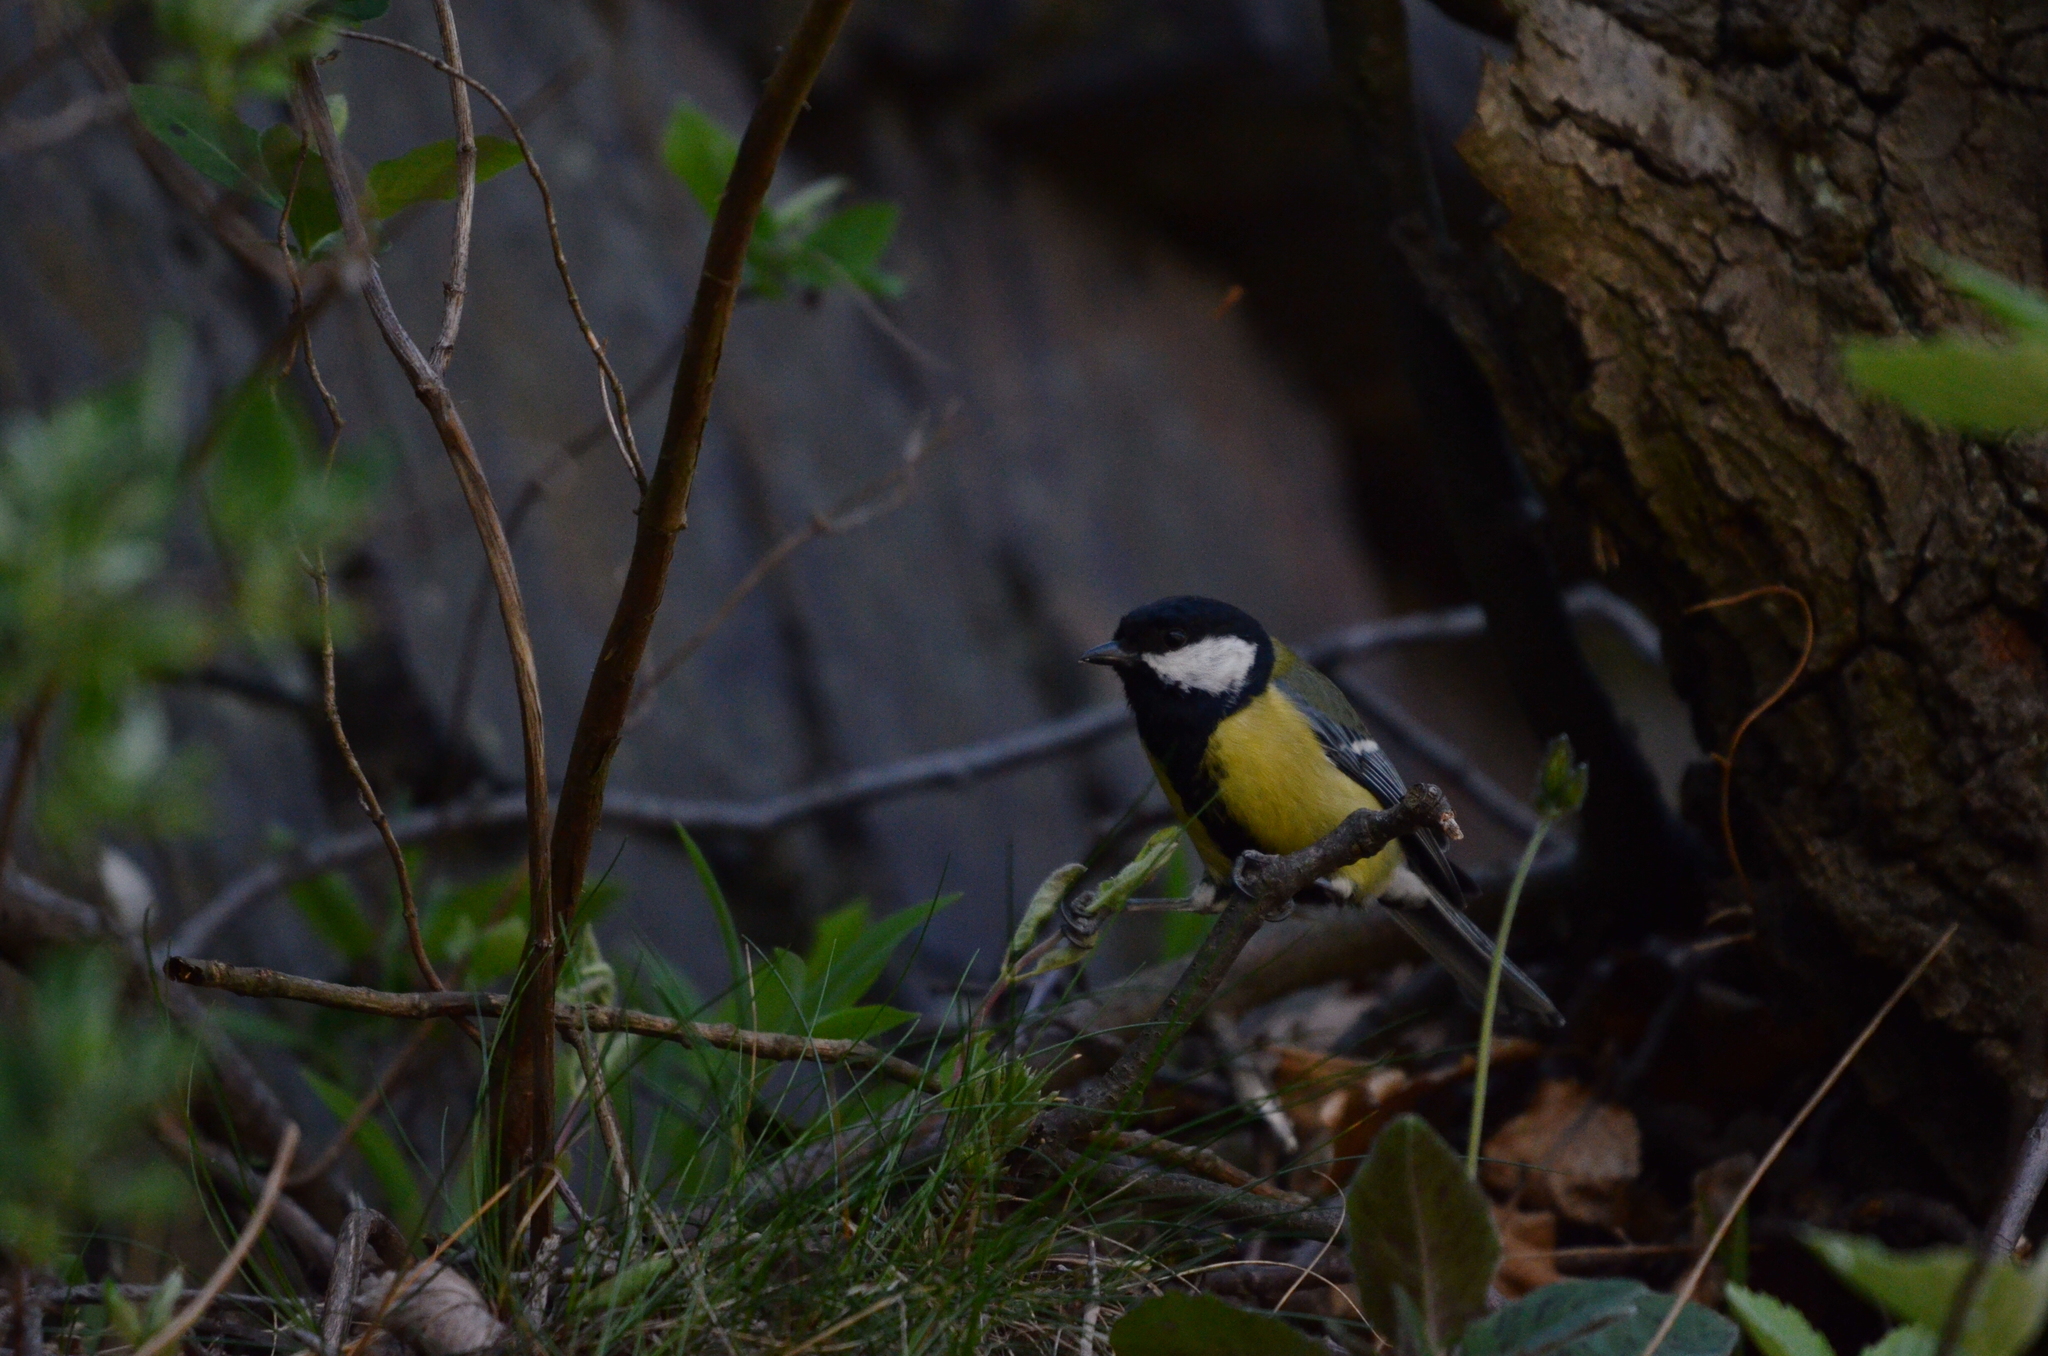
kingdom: Animalia
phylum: Chordata
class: Aves
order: Passeriformes
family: Paridae
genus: Parus
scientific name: Parus major
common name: Great tit
